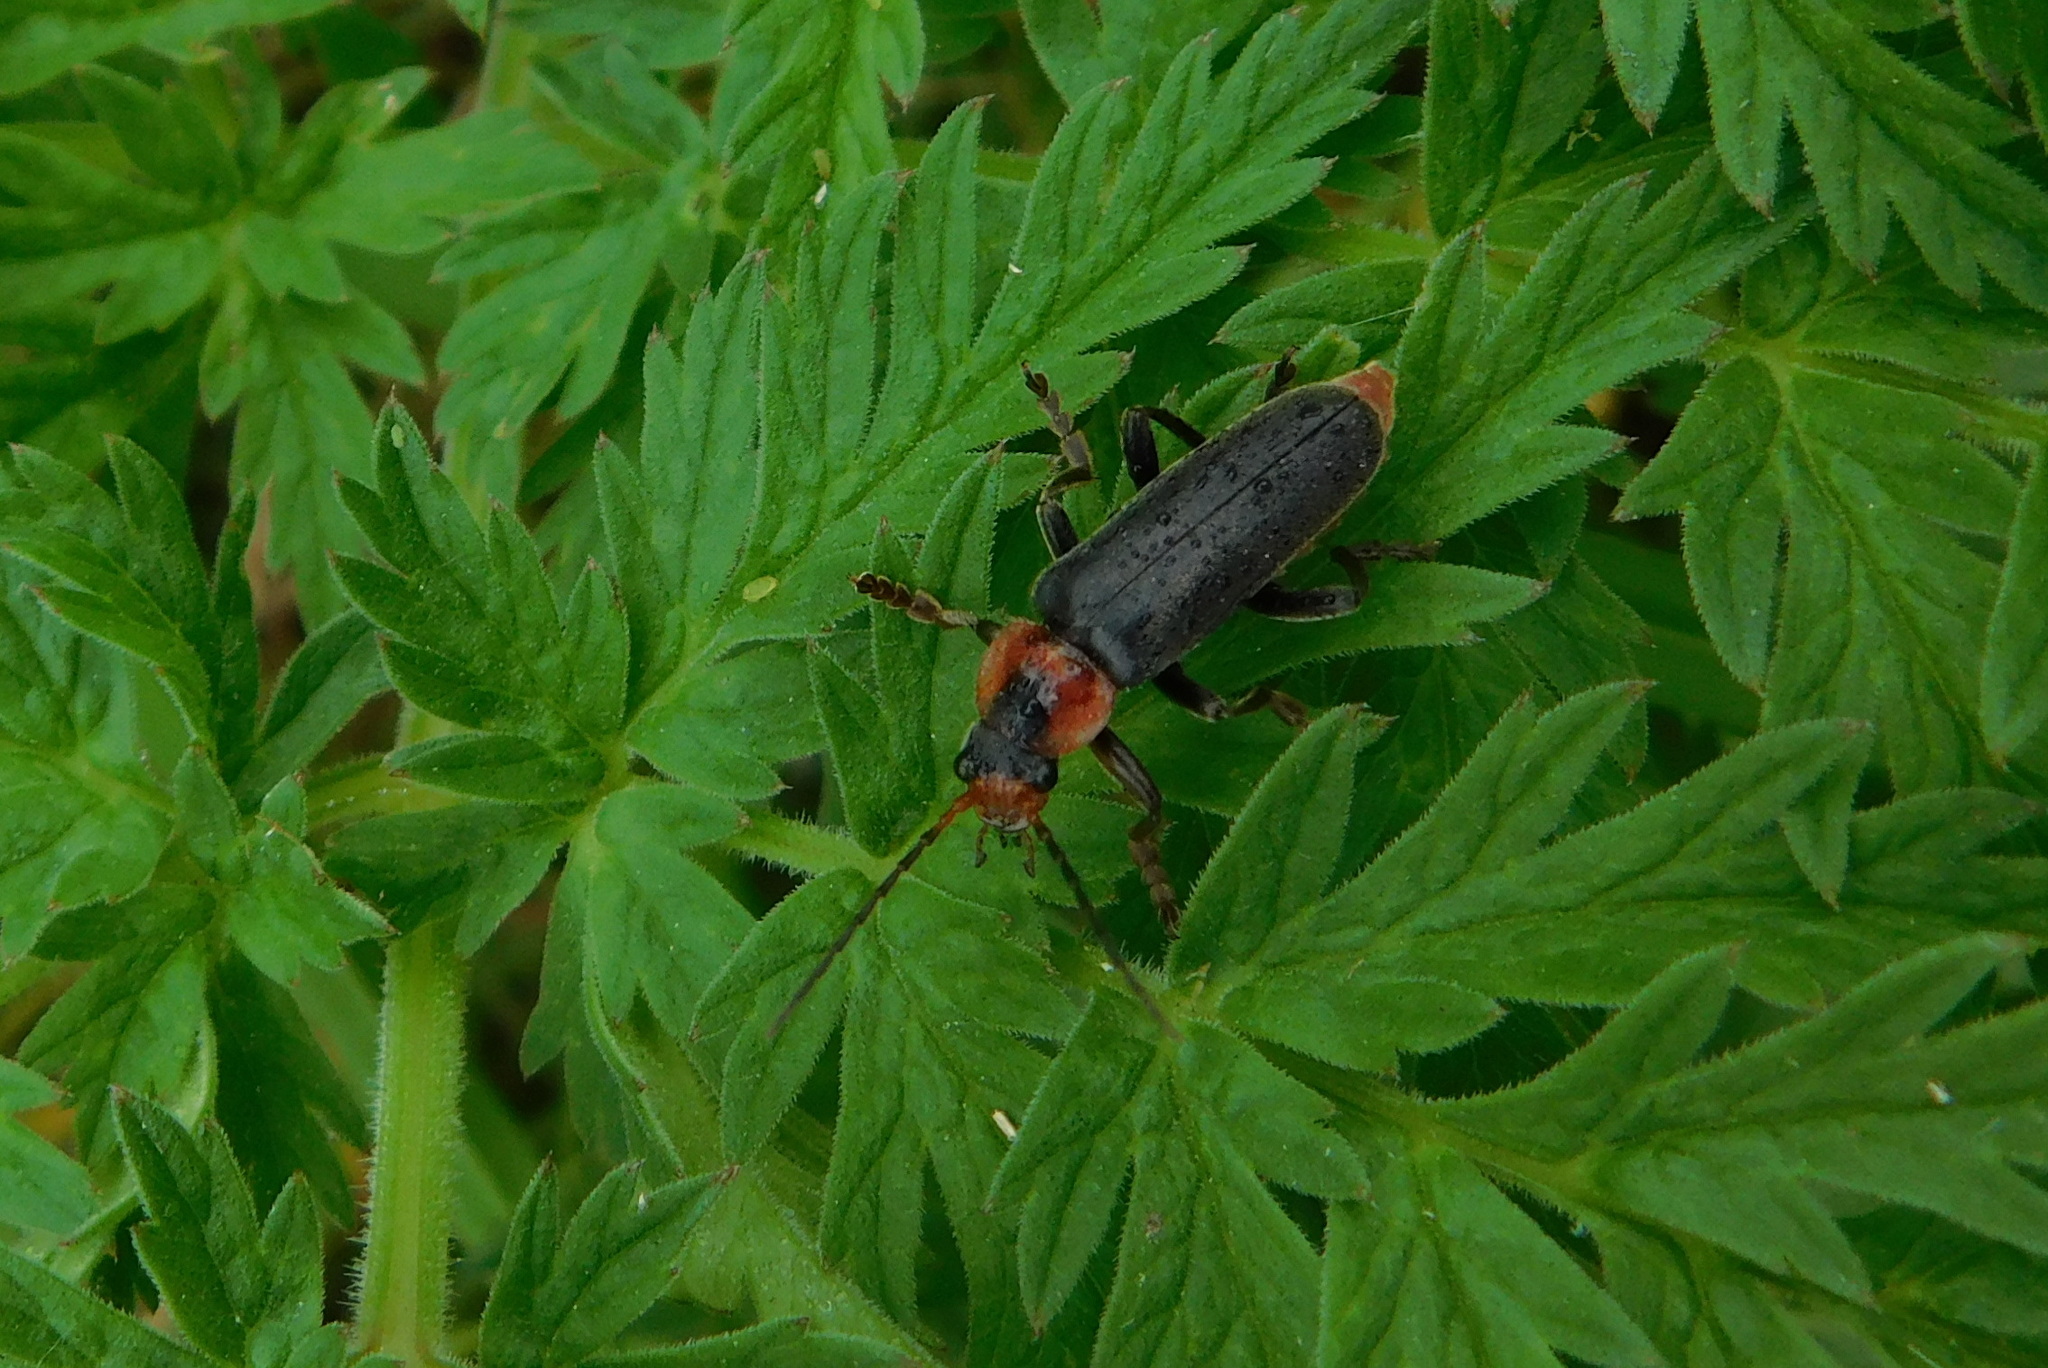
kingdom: Animalia
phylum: Arthropoda
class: Insecta
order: Coleoptera
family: Cantharidae
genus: Cantharis
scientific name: Cantharis fusca
